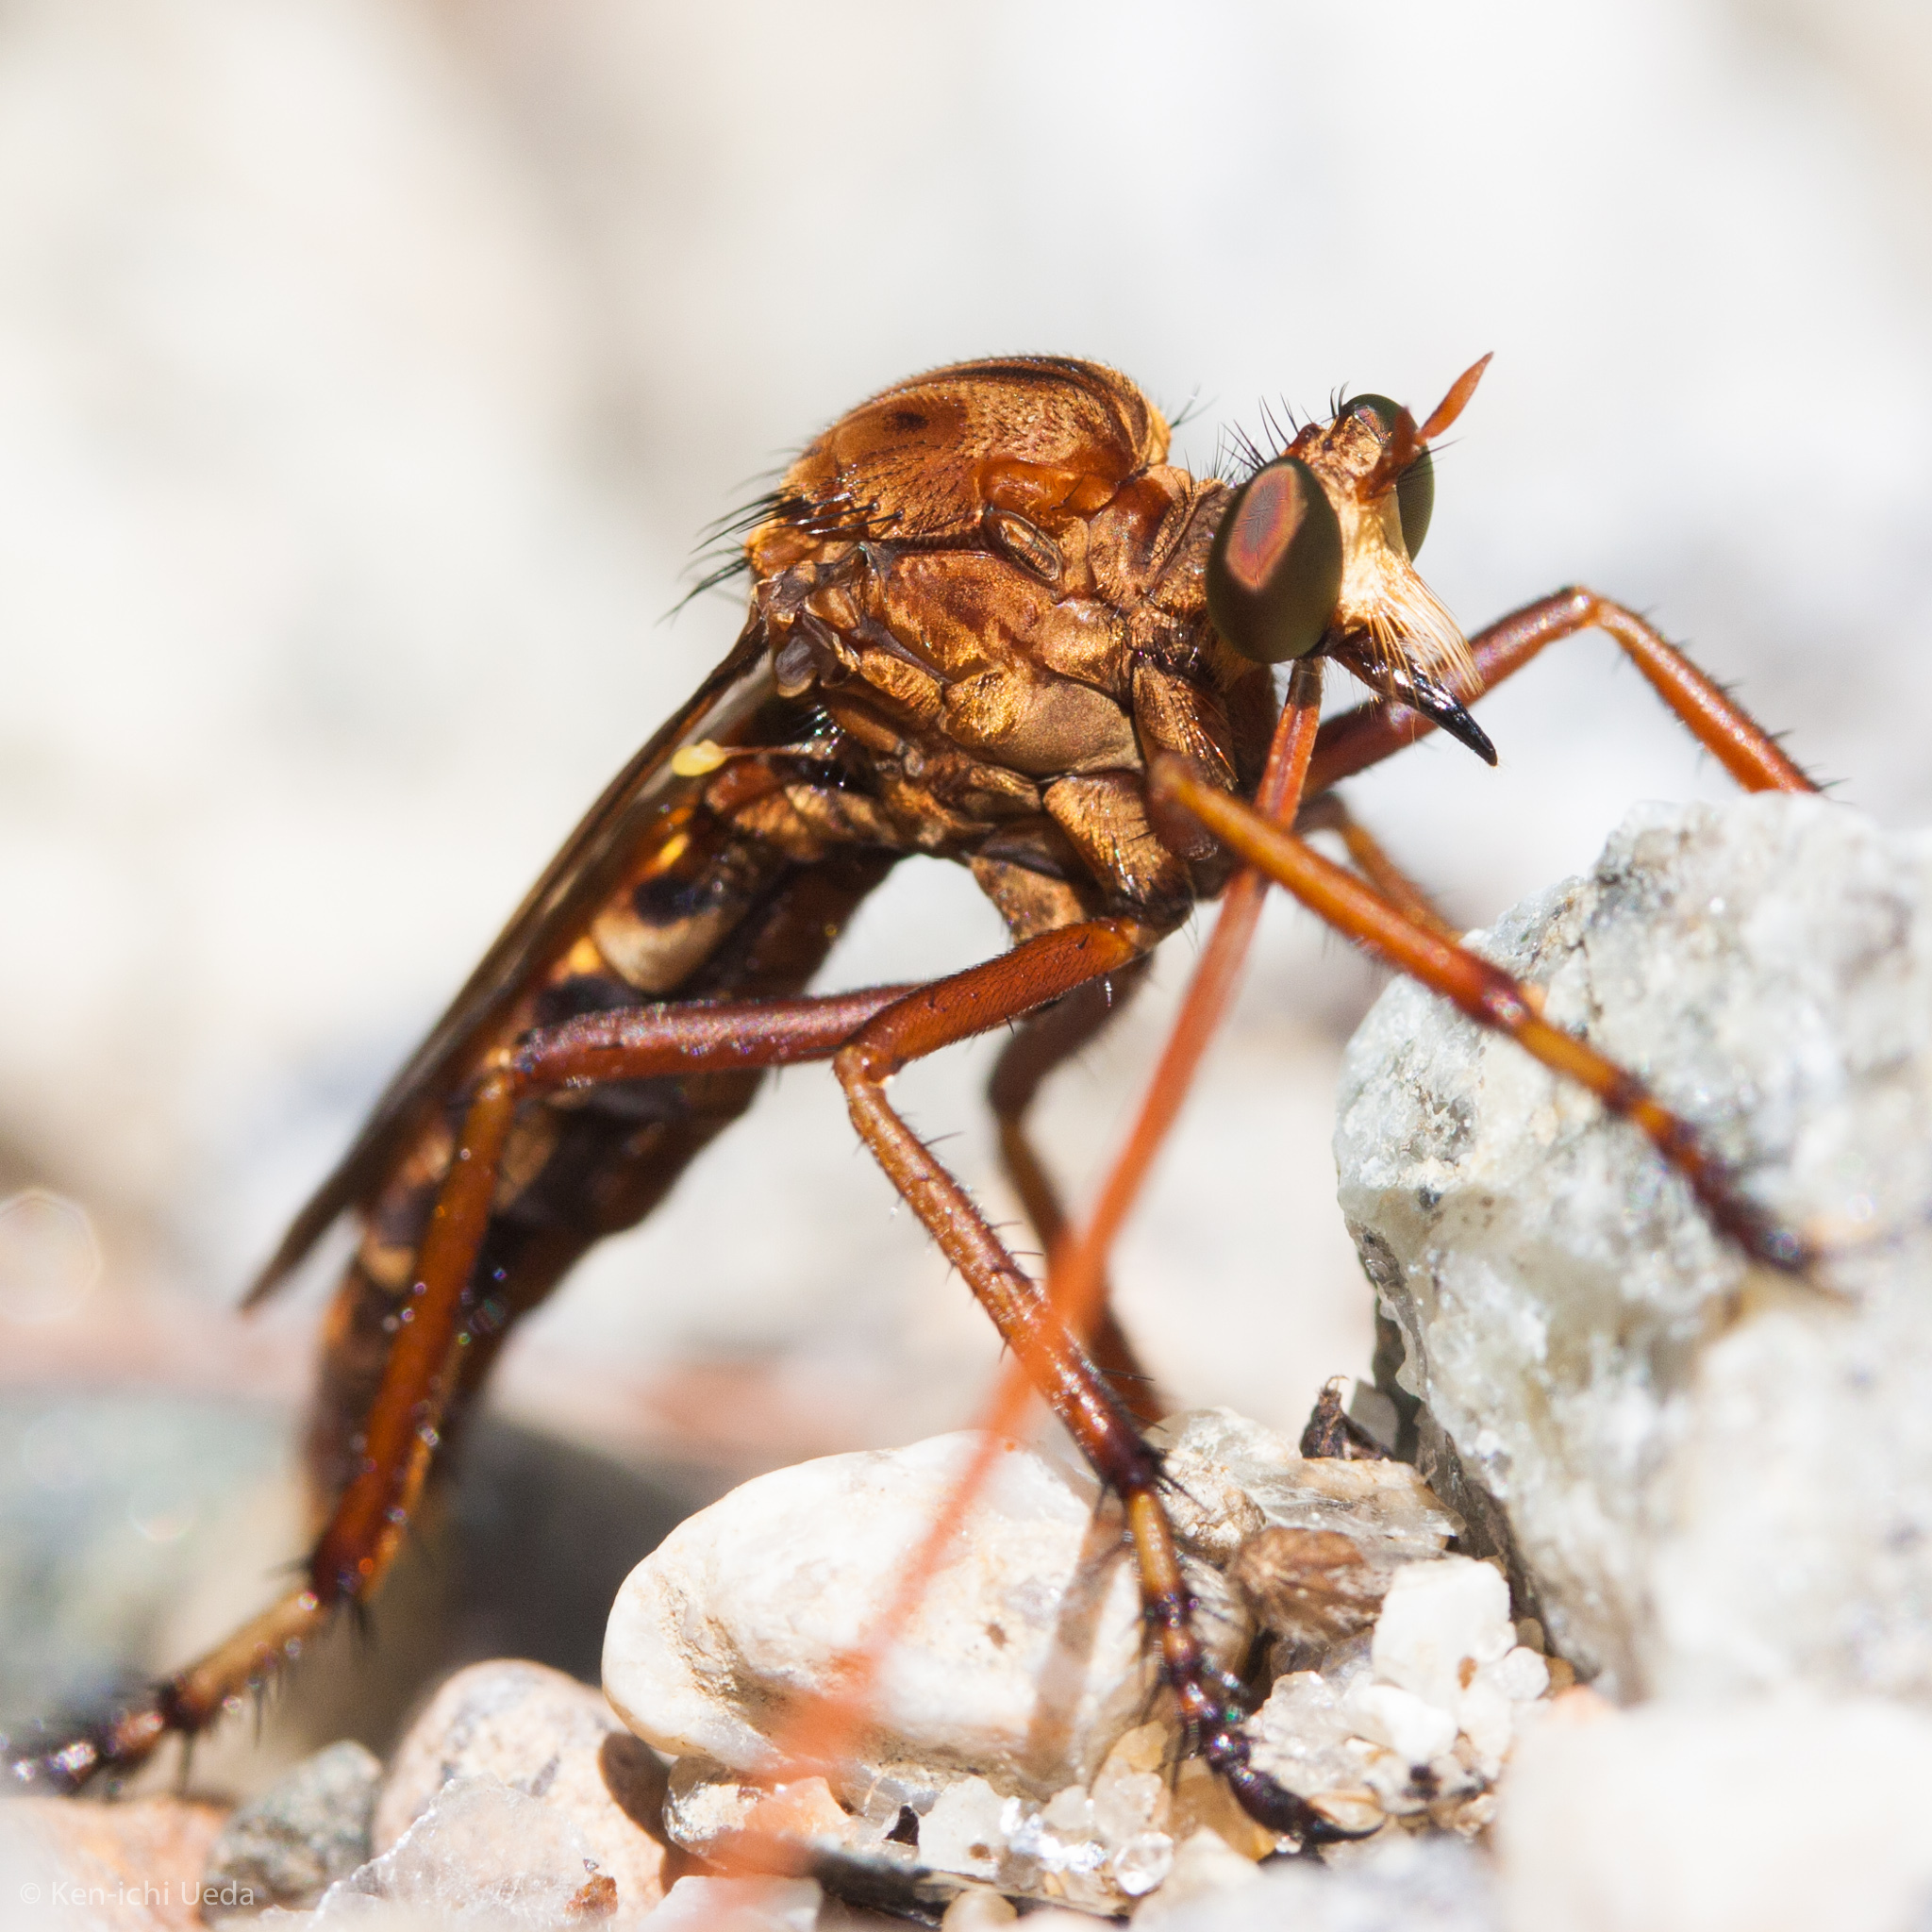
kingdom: Animalia
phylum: Arthropoda
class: Insecta
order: Diptera
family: Asilidae
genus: Diogmites
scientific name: Diogmites basalis
